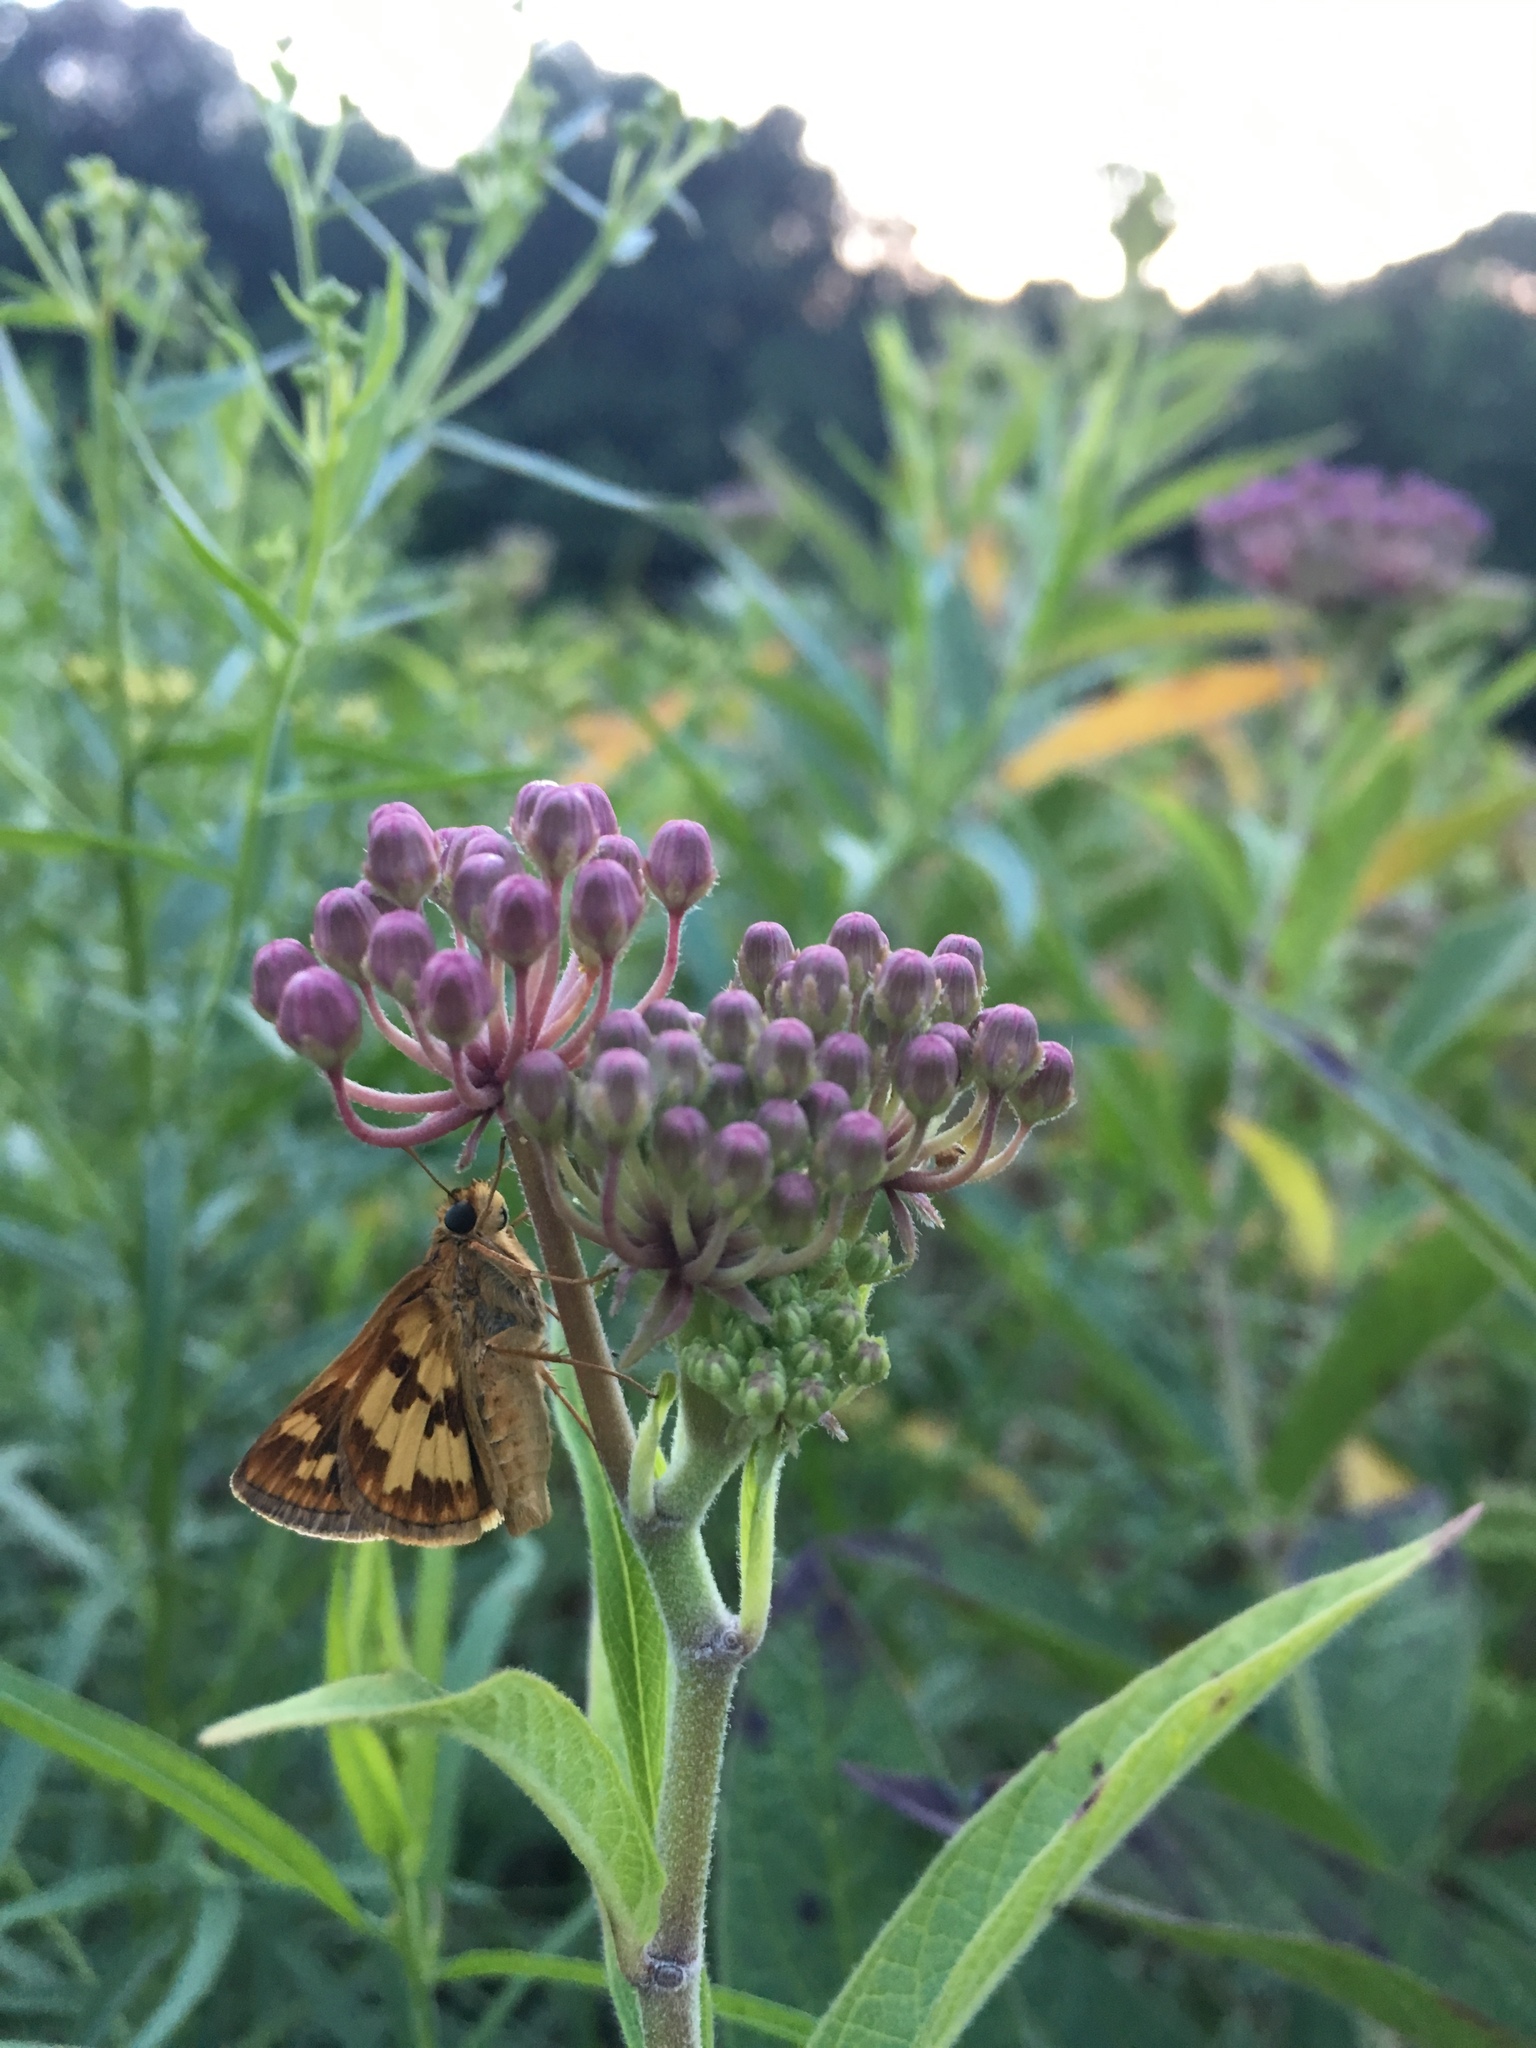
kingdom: Animalia
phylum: Arthropoda
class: Insecta
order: Lepidoptera
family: Hesperiidae
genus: Polites
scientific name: Polites coras
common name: Peck's skipper
